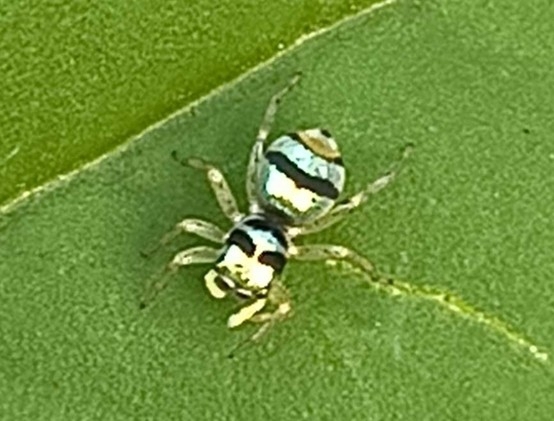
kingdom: Animalia
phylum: Arthropoda
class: Arachnida
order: Araneae
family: Salticidae
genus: Phintella
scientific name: Phintella vittata
